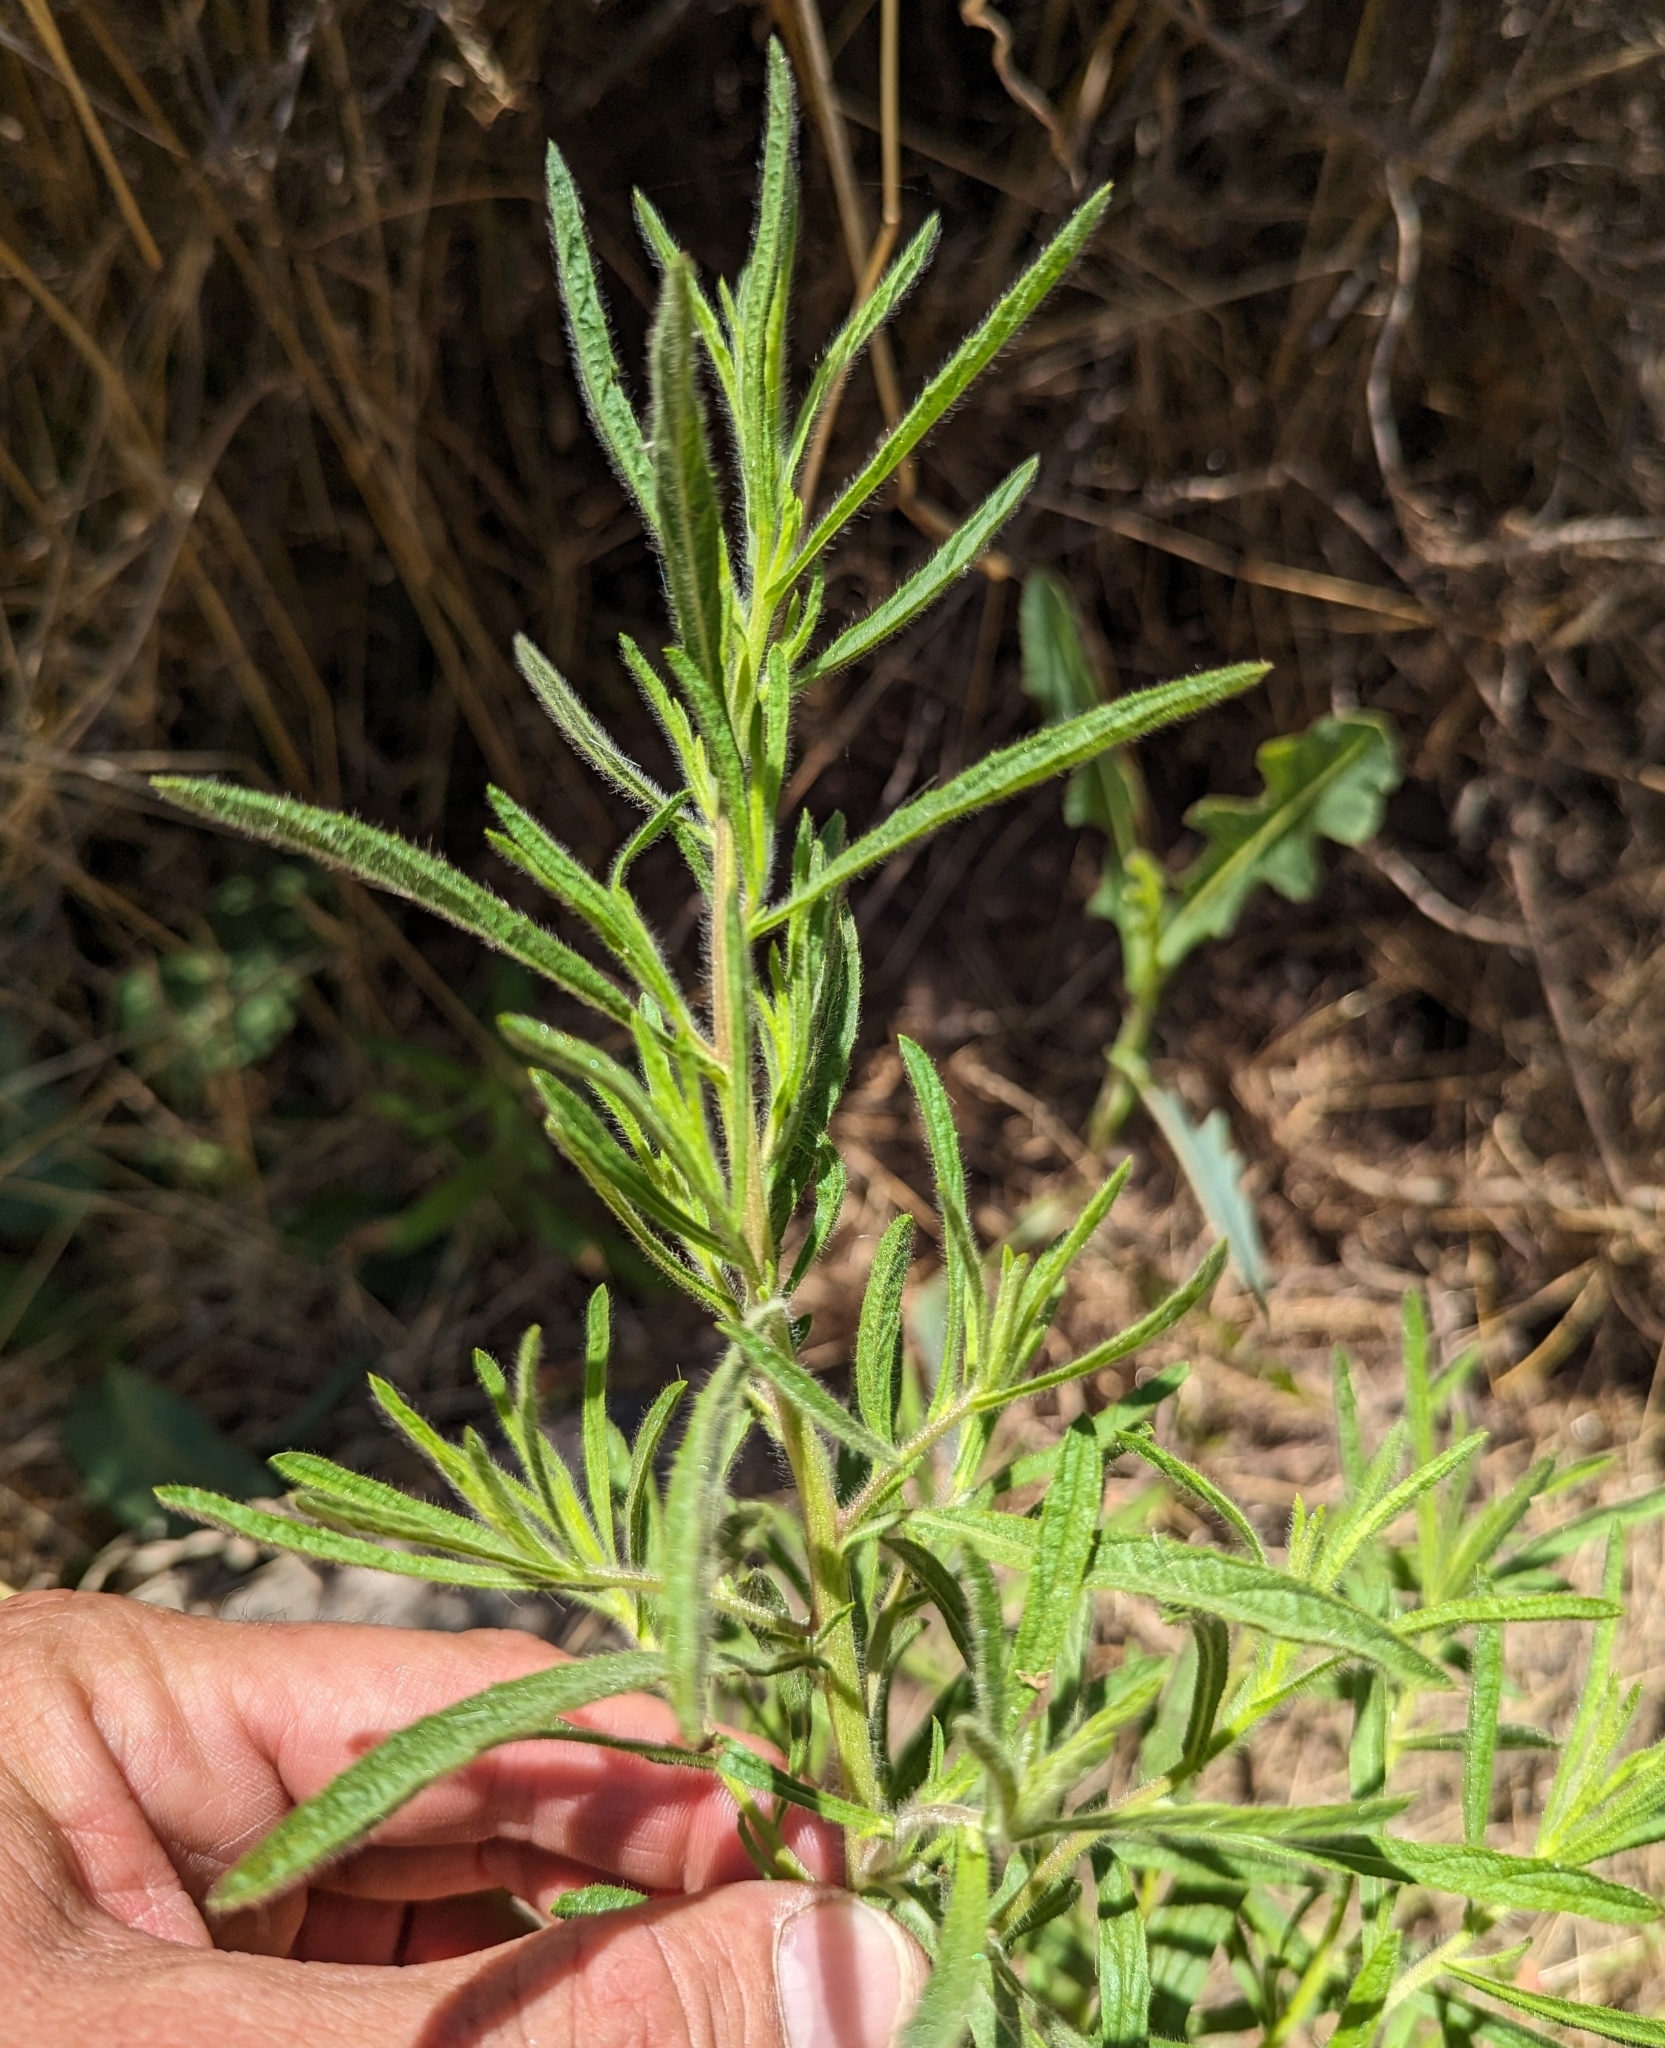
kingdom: Plantae
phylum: Tracheophyta
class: Magnoliopsida
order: Asterales
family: Asteraceae
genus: Dittrichia
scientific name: Dittrichia graveolens
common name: Stinking fleabane
